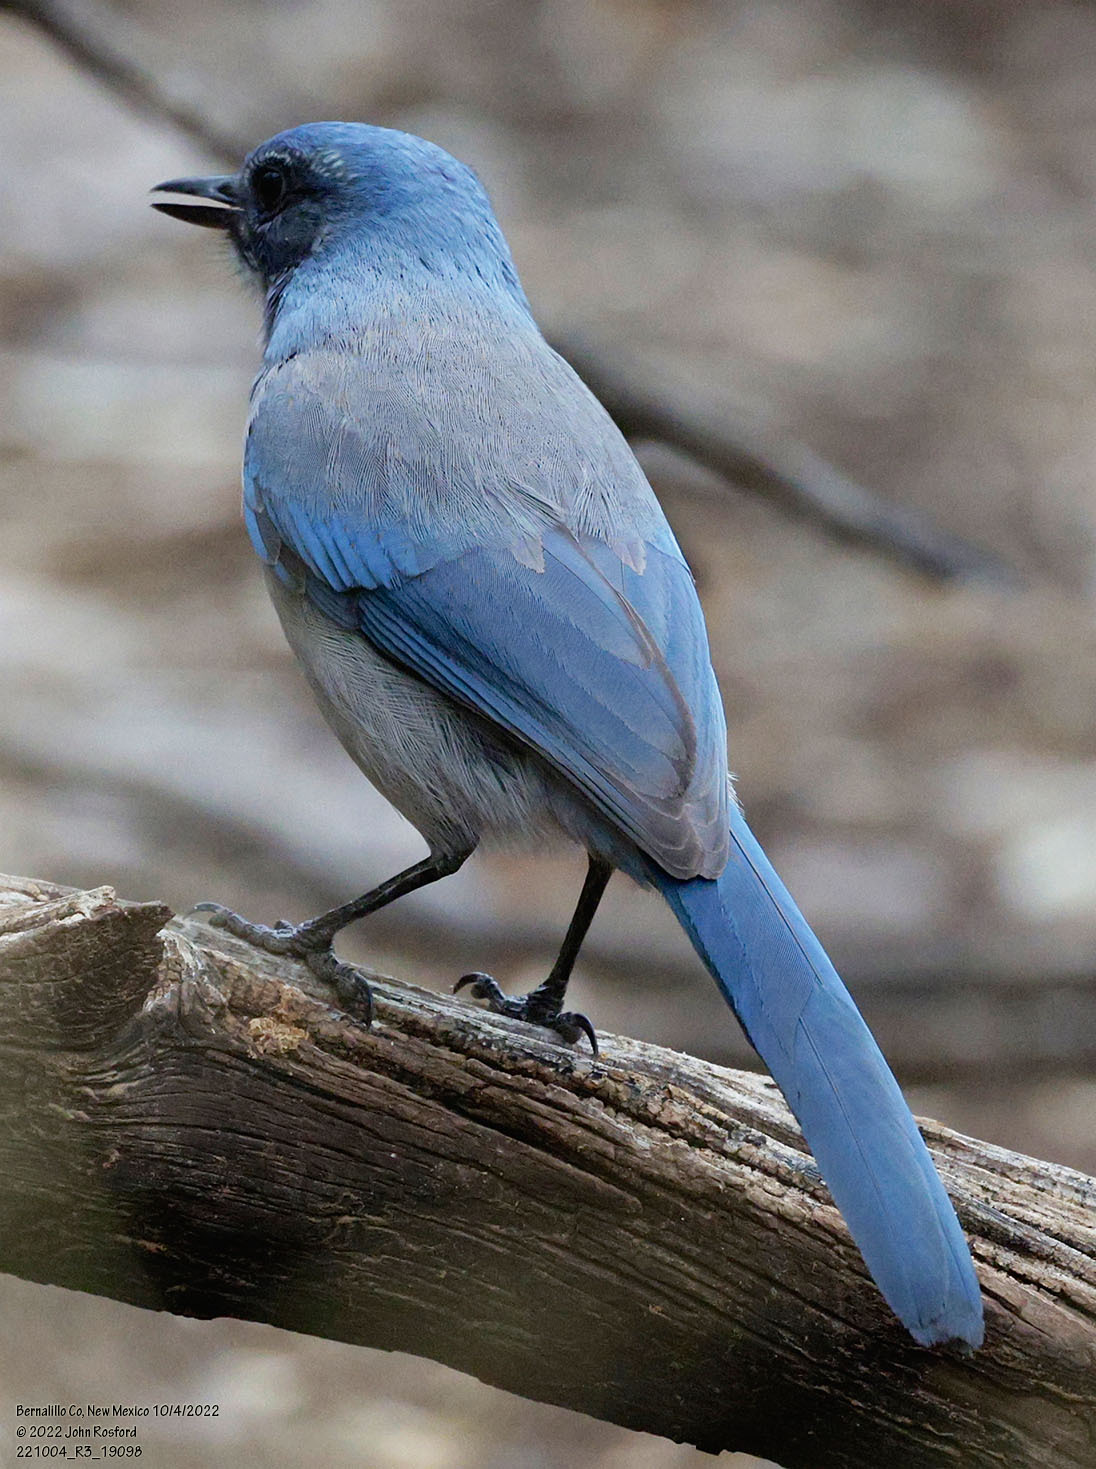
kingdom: Animalia
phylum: Chordata
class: Aves
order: Passeriformes
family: Corvidae
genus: Aphelocoma
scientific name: Aphelocoma woodhouseii
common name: Woodhouse's scrub-jay
